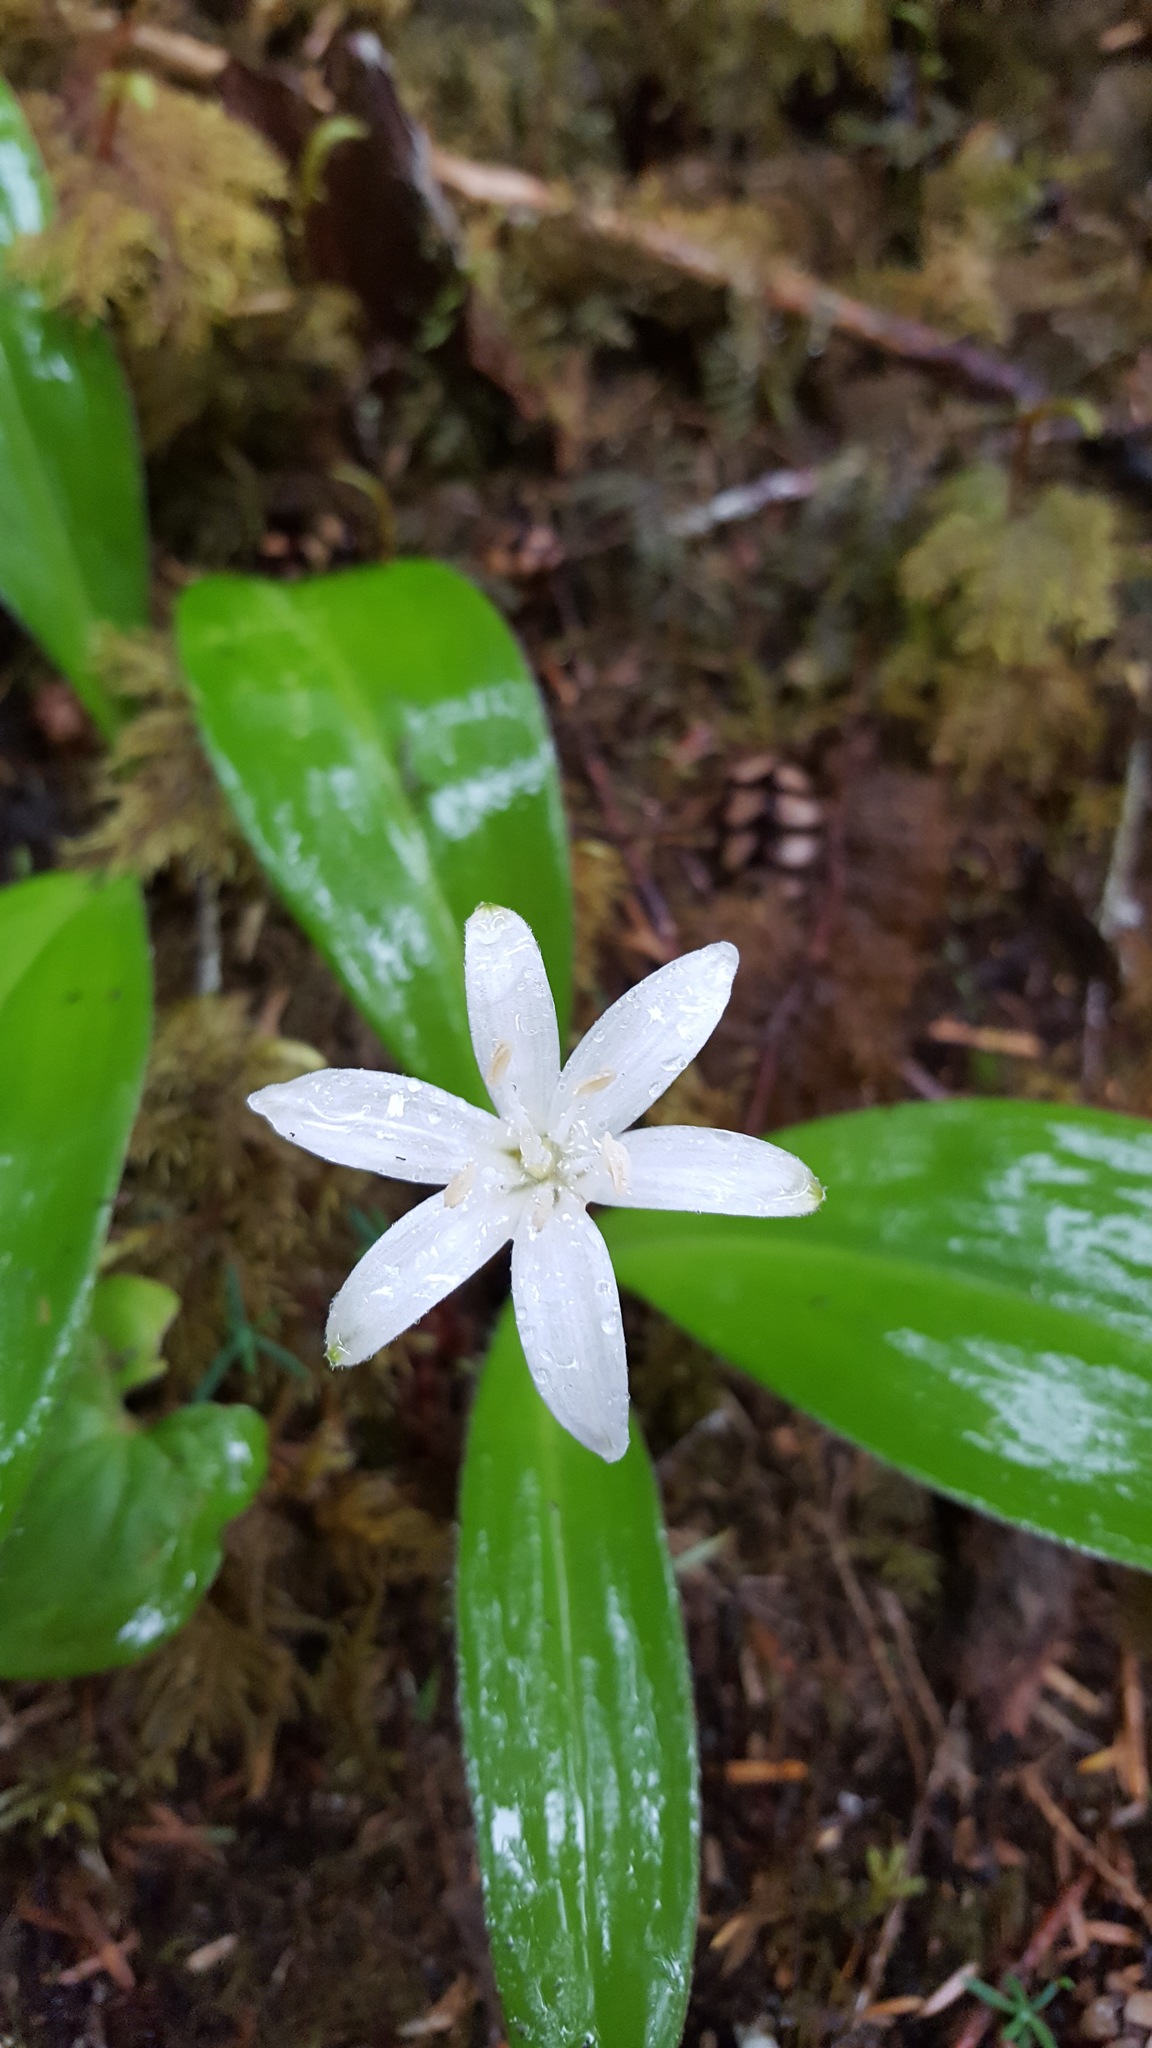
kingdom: Plantae
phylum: Tracheophyta
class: Liliopsida
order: Liliales
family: Liliaceae
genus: Clintonia
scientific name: Clintonia uniflora
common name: Queen's cup
